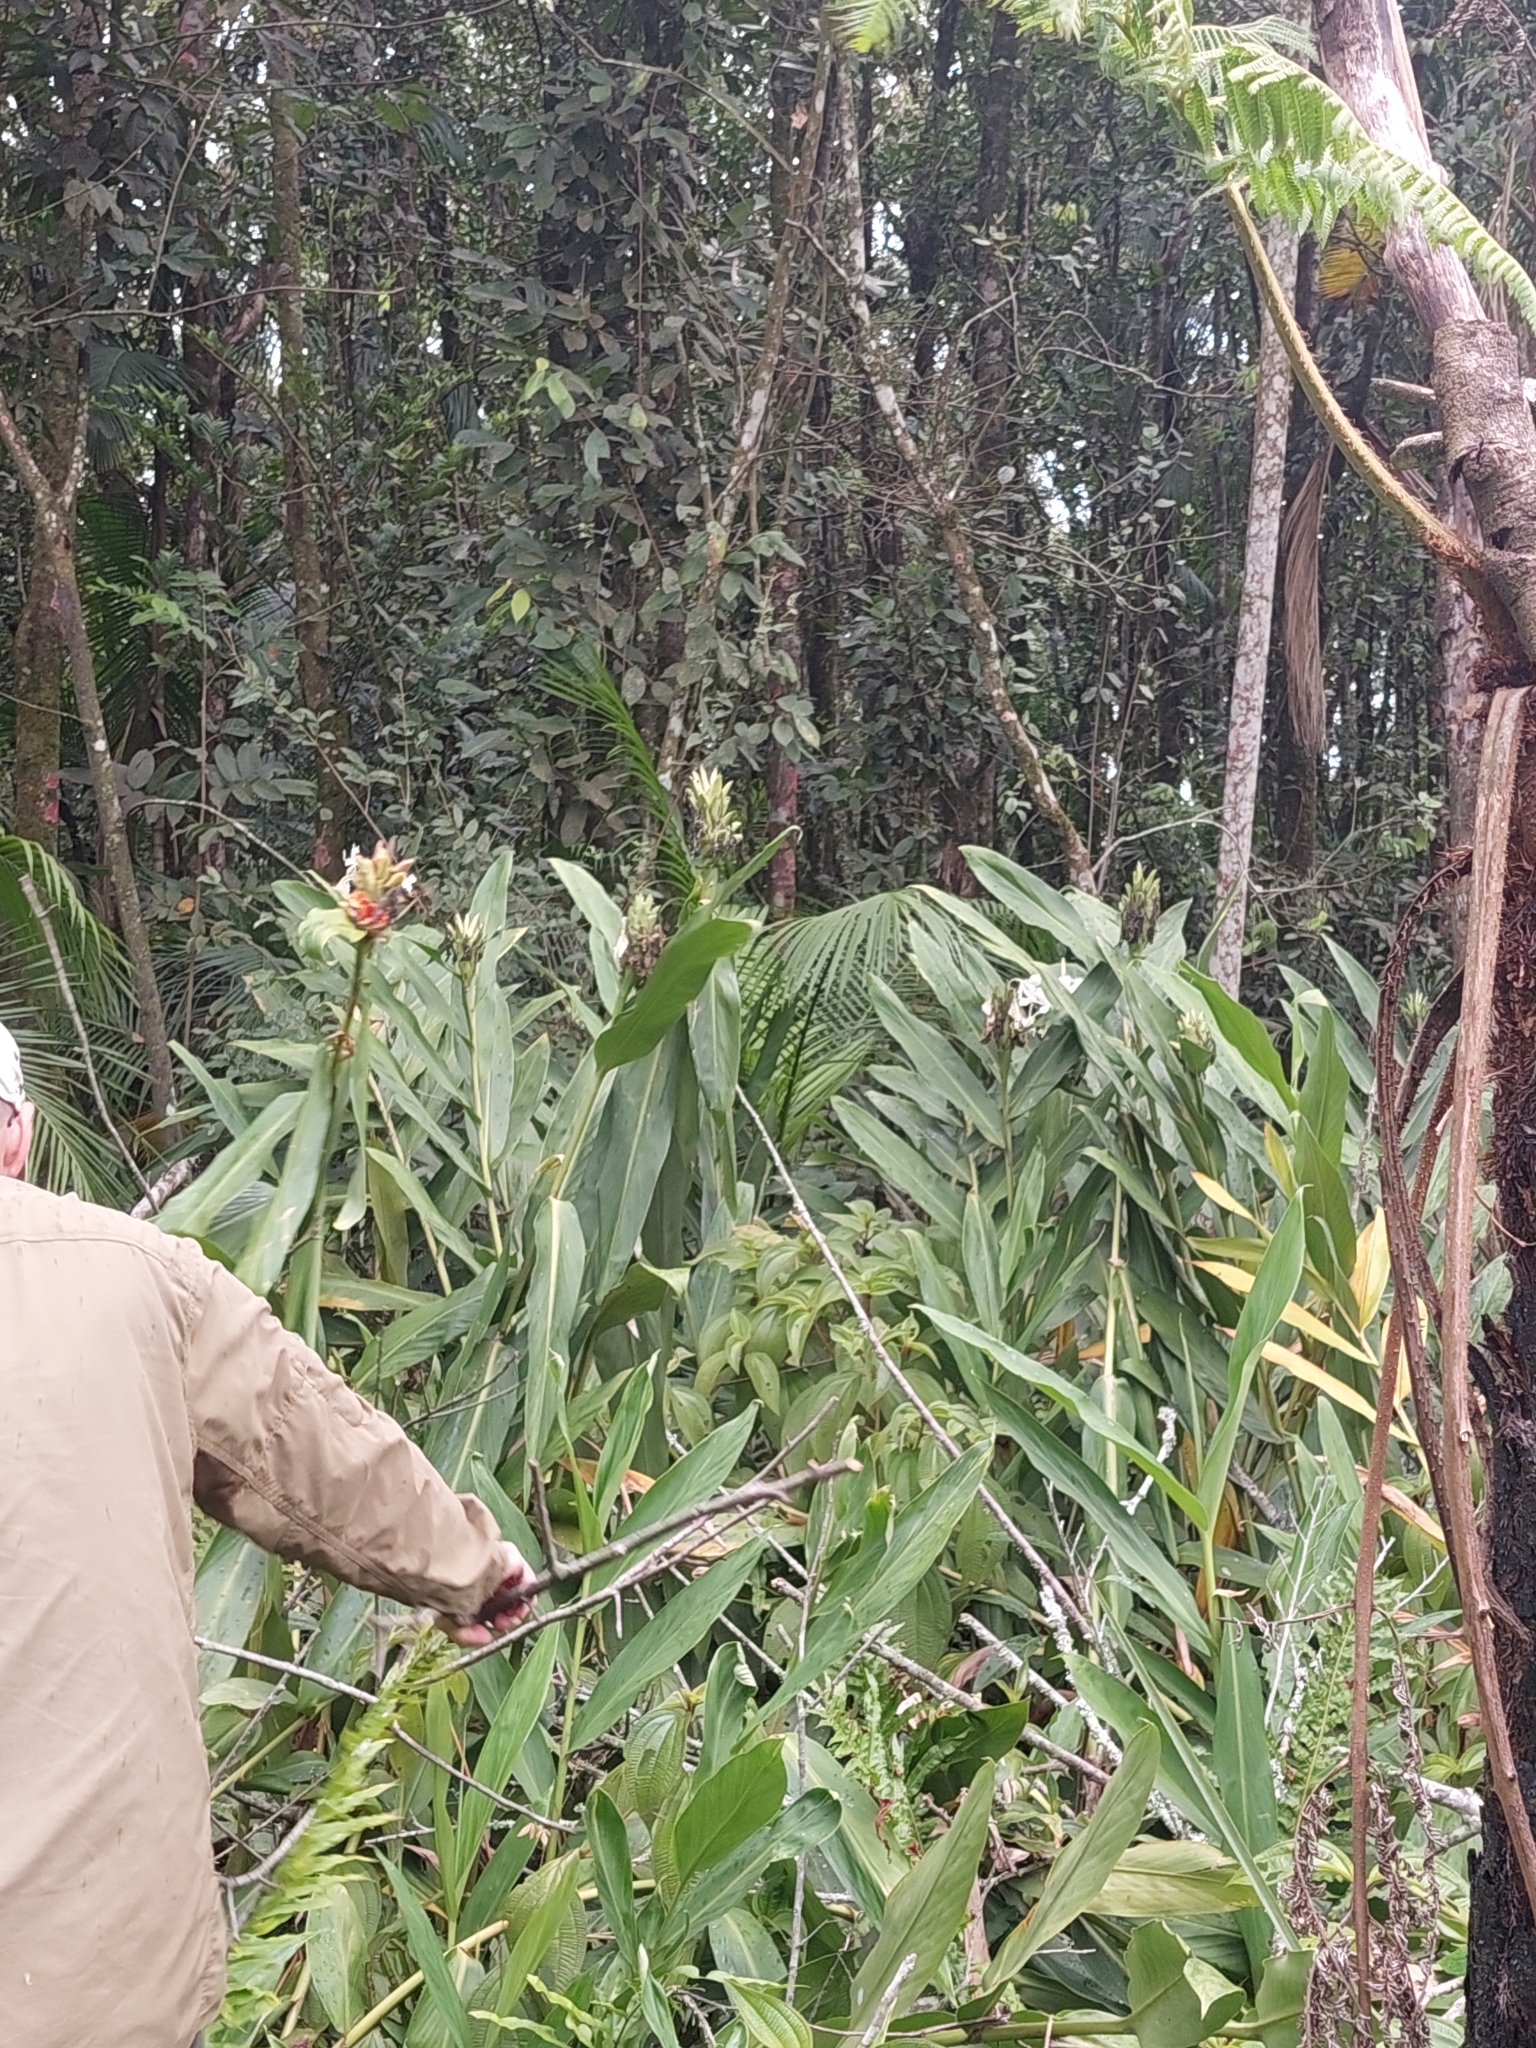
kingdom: Plantae
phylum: Tracheophyta
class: Liliopsida
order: Zingiberales
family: Zingiberaceae
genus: Hedychium
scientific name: Hedychium coronarium
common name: White garland-lily
